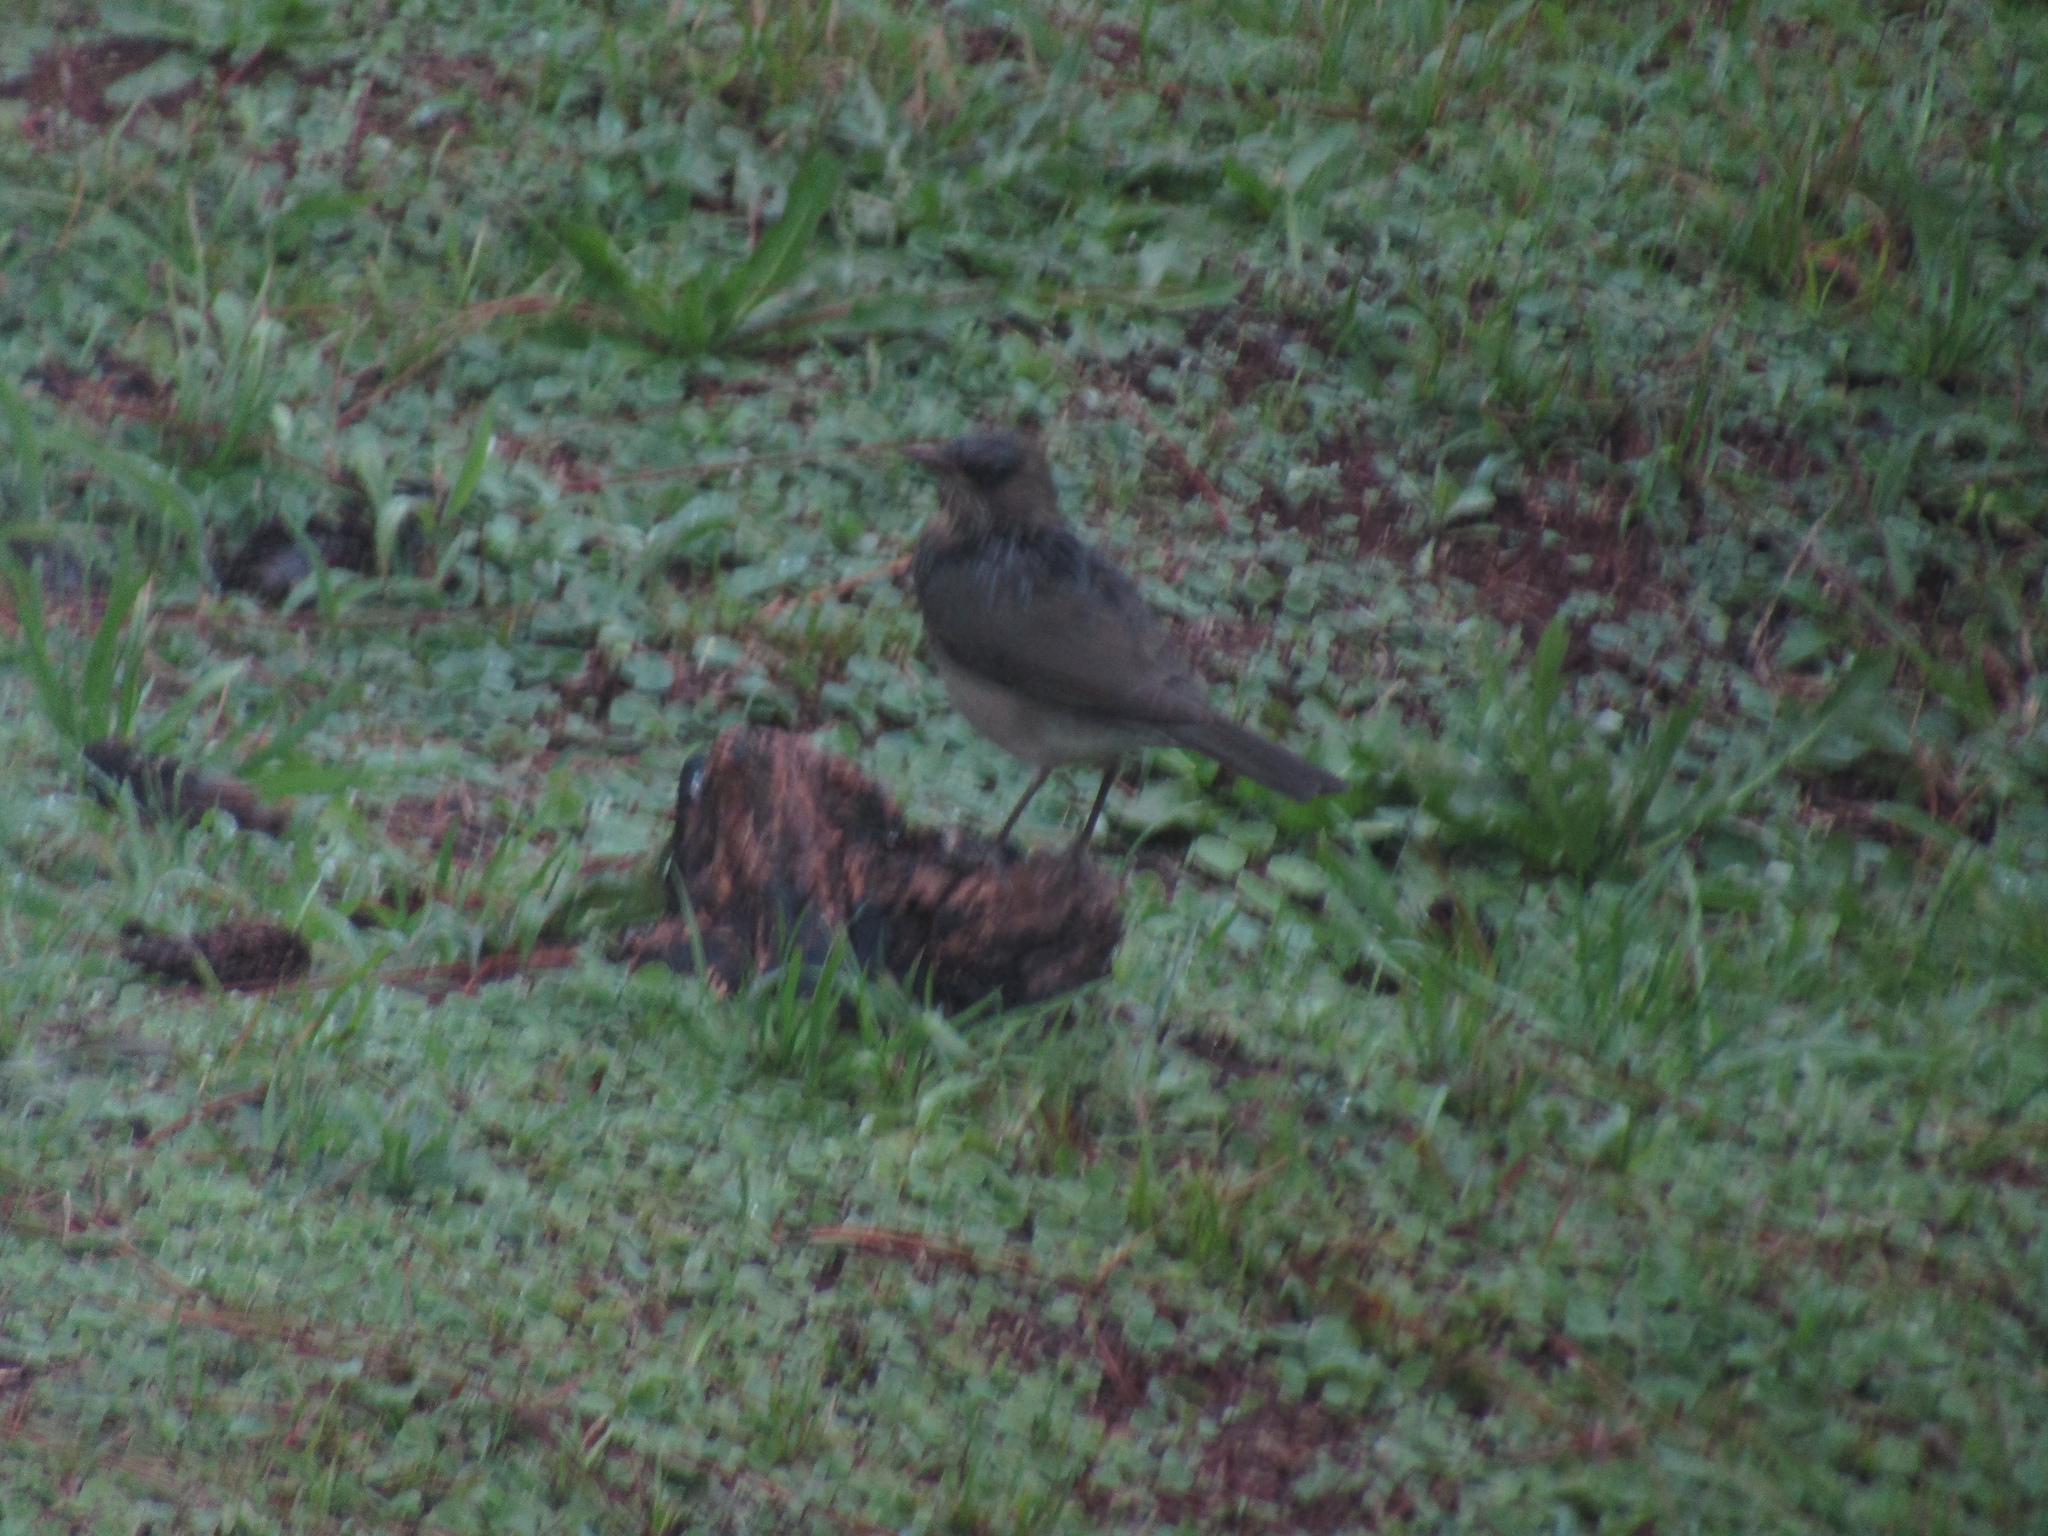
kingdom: Animalia
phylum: Chordata
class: Aves
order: Passeriformes
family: Turdidae
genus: Turdus
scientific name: Turdus amaurochalinus
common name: Creamy-bellied thrush
